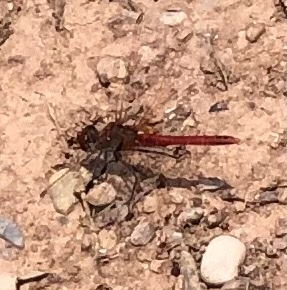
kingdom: Animalia
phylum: Arthropoda
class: Insecta
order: Odonata
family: Libellulidae
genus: Sympetrum
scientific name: Sympetrum fonscolombii
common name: Red-veined darter
